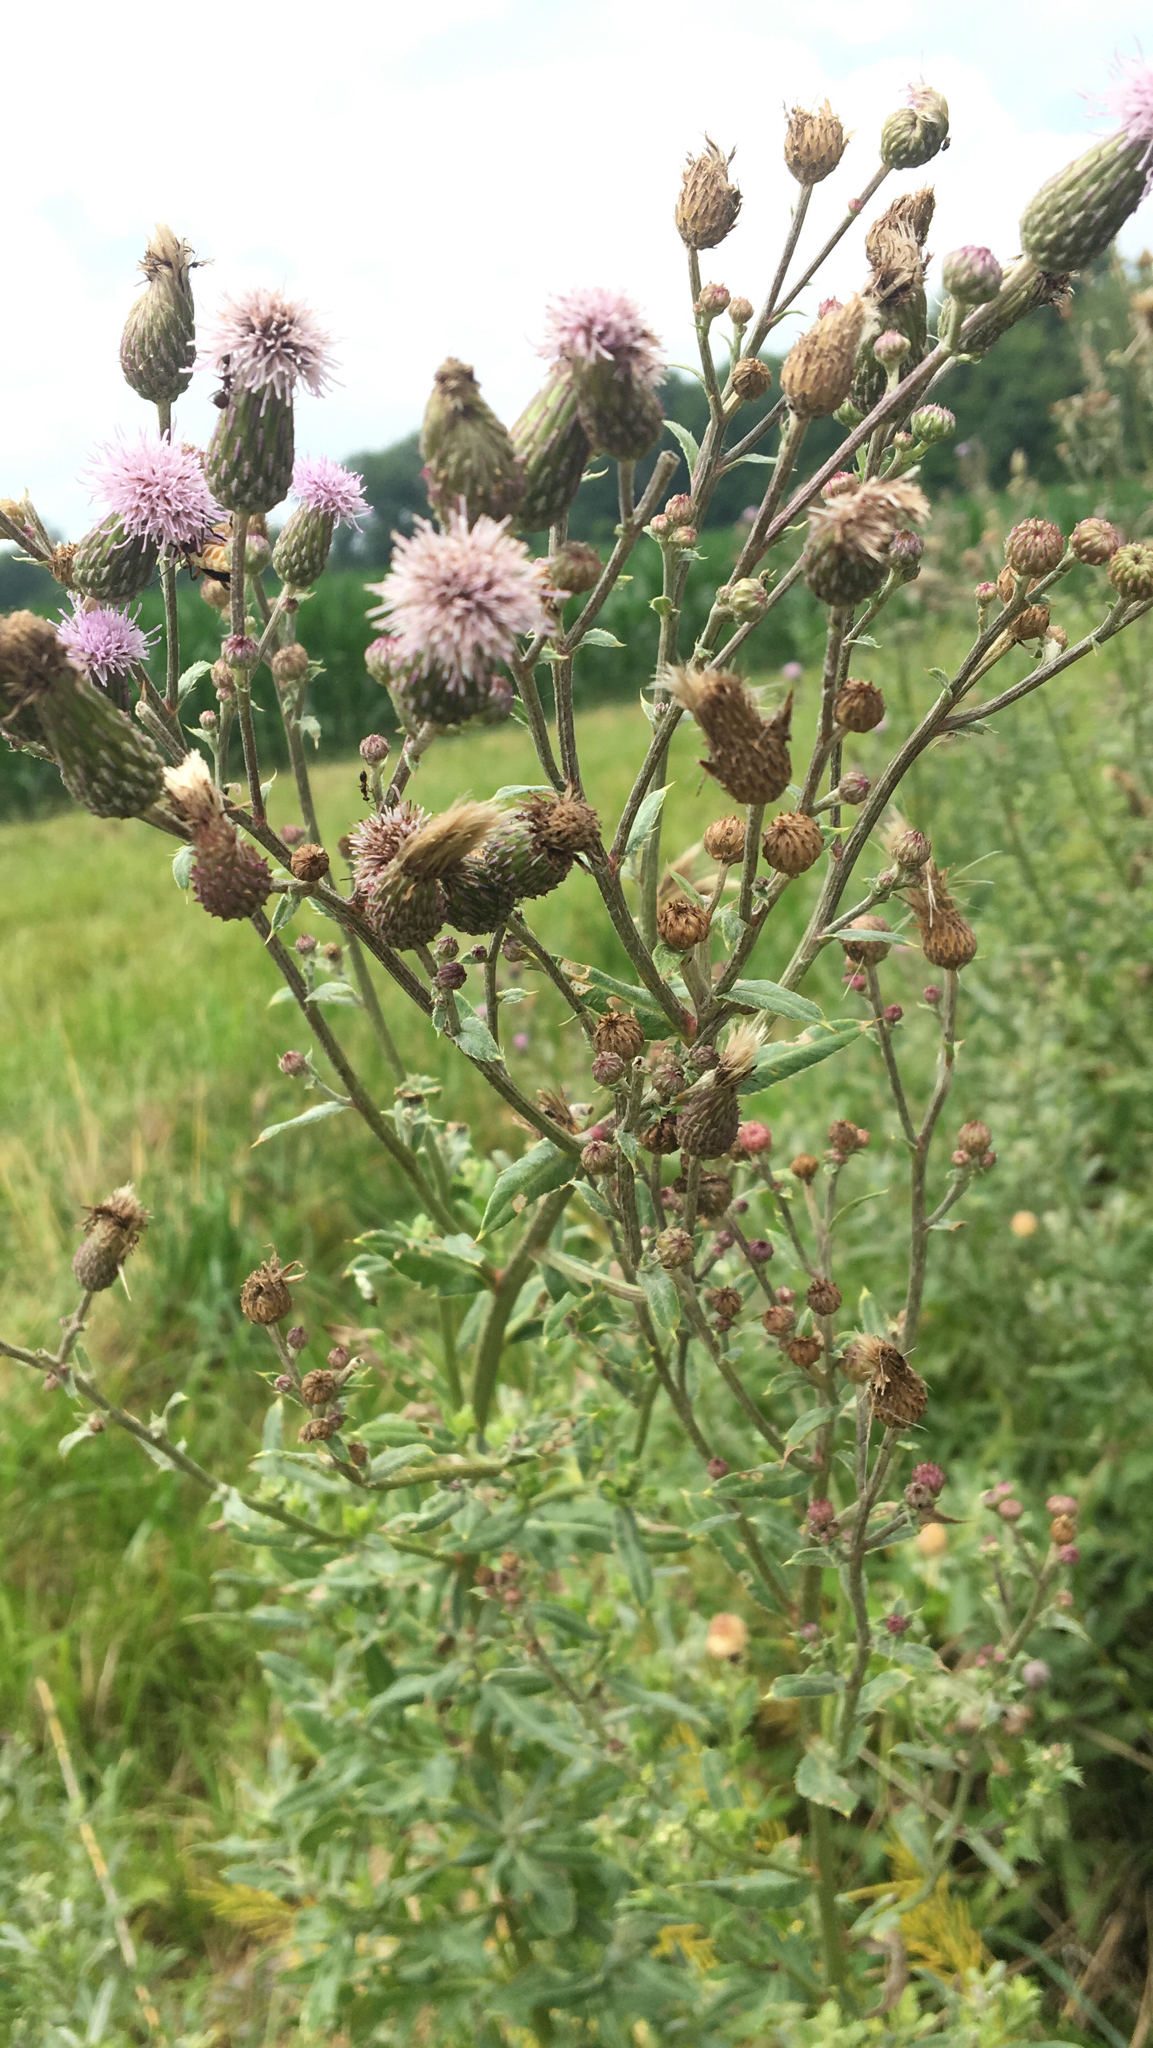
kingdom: Plantae
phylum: Tracheophyta
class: Magnoliopsida
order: Asterales
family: Asteraceae
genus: Cirsium
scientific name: Cirsium arvense
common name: Creeping thistle
